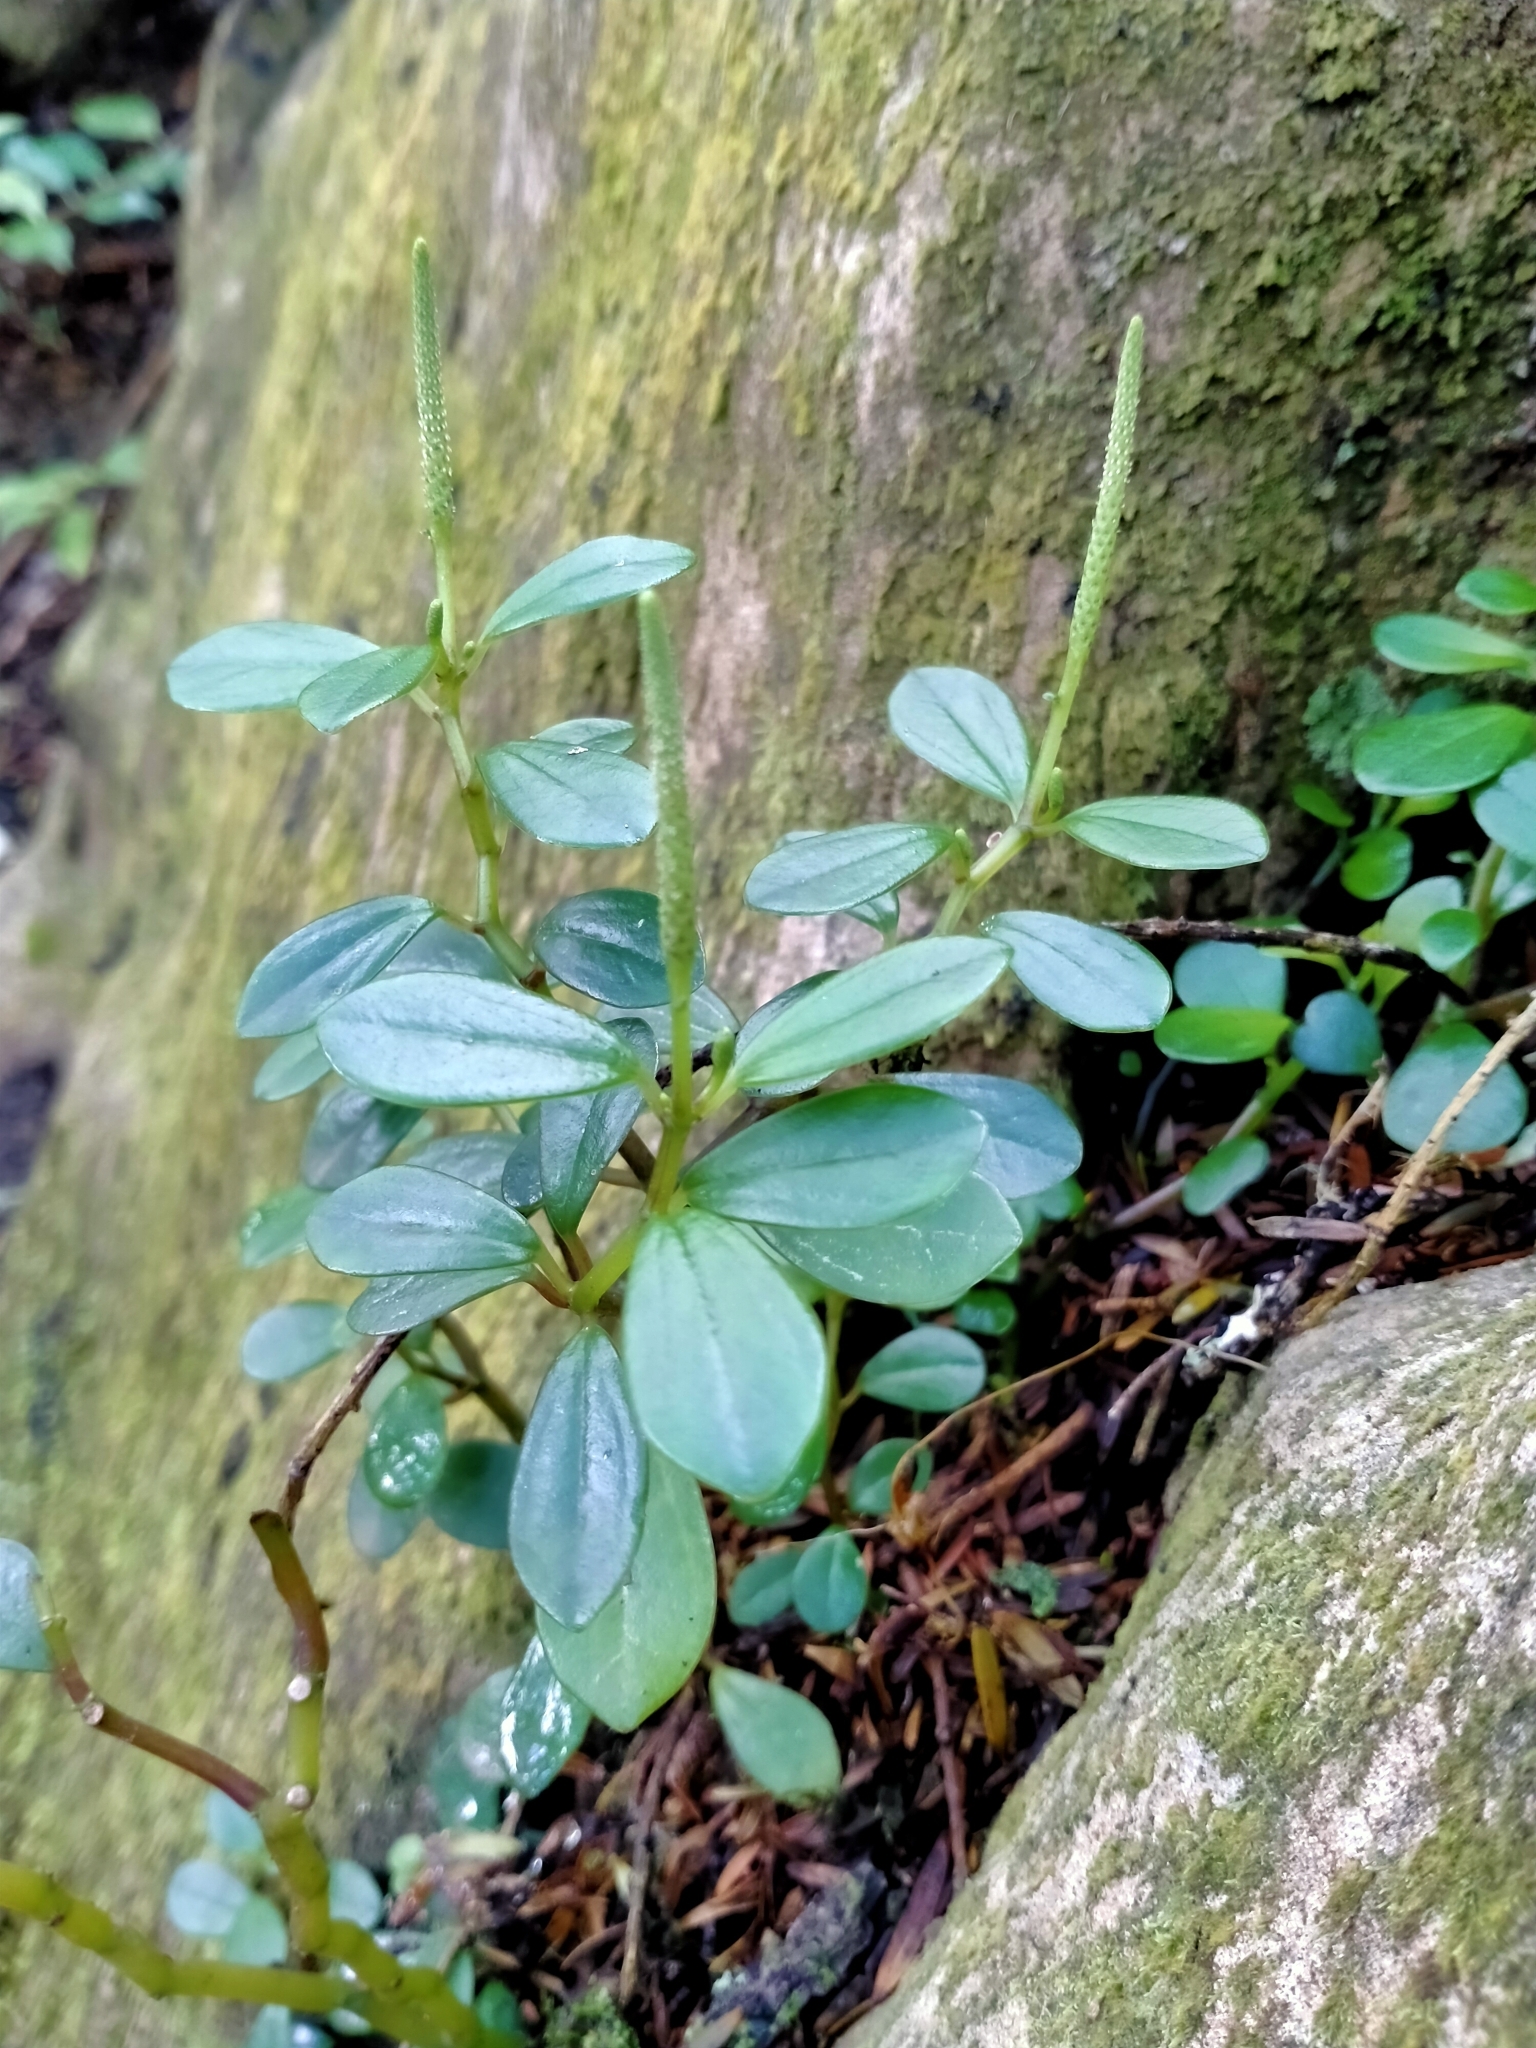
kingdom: Plantae
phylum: Tracheophyta
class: Magnoliopsida
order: Piperales
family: Piperaceae
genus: Peperomia
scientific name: Peperomia urvilleana
